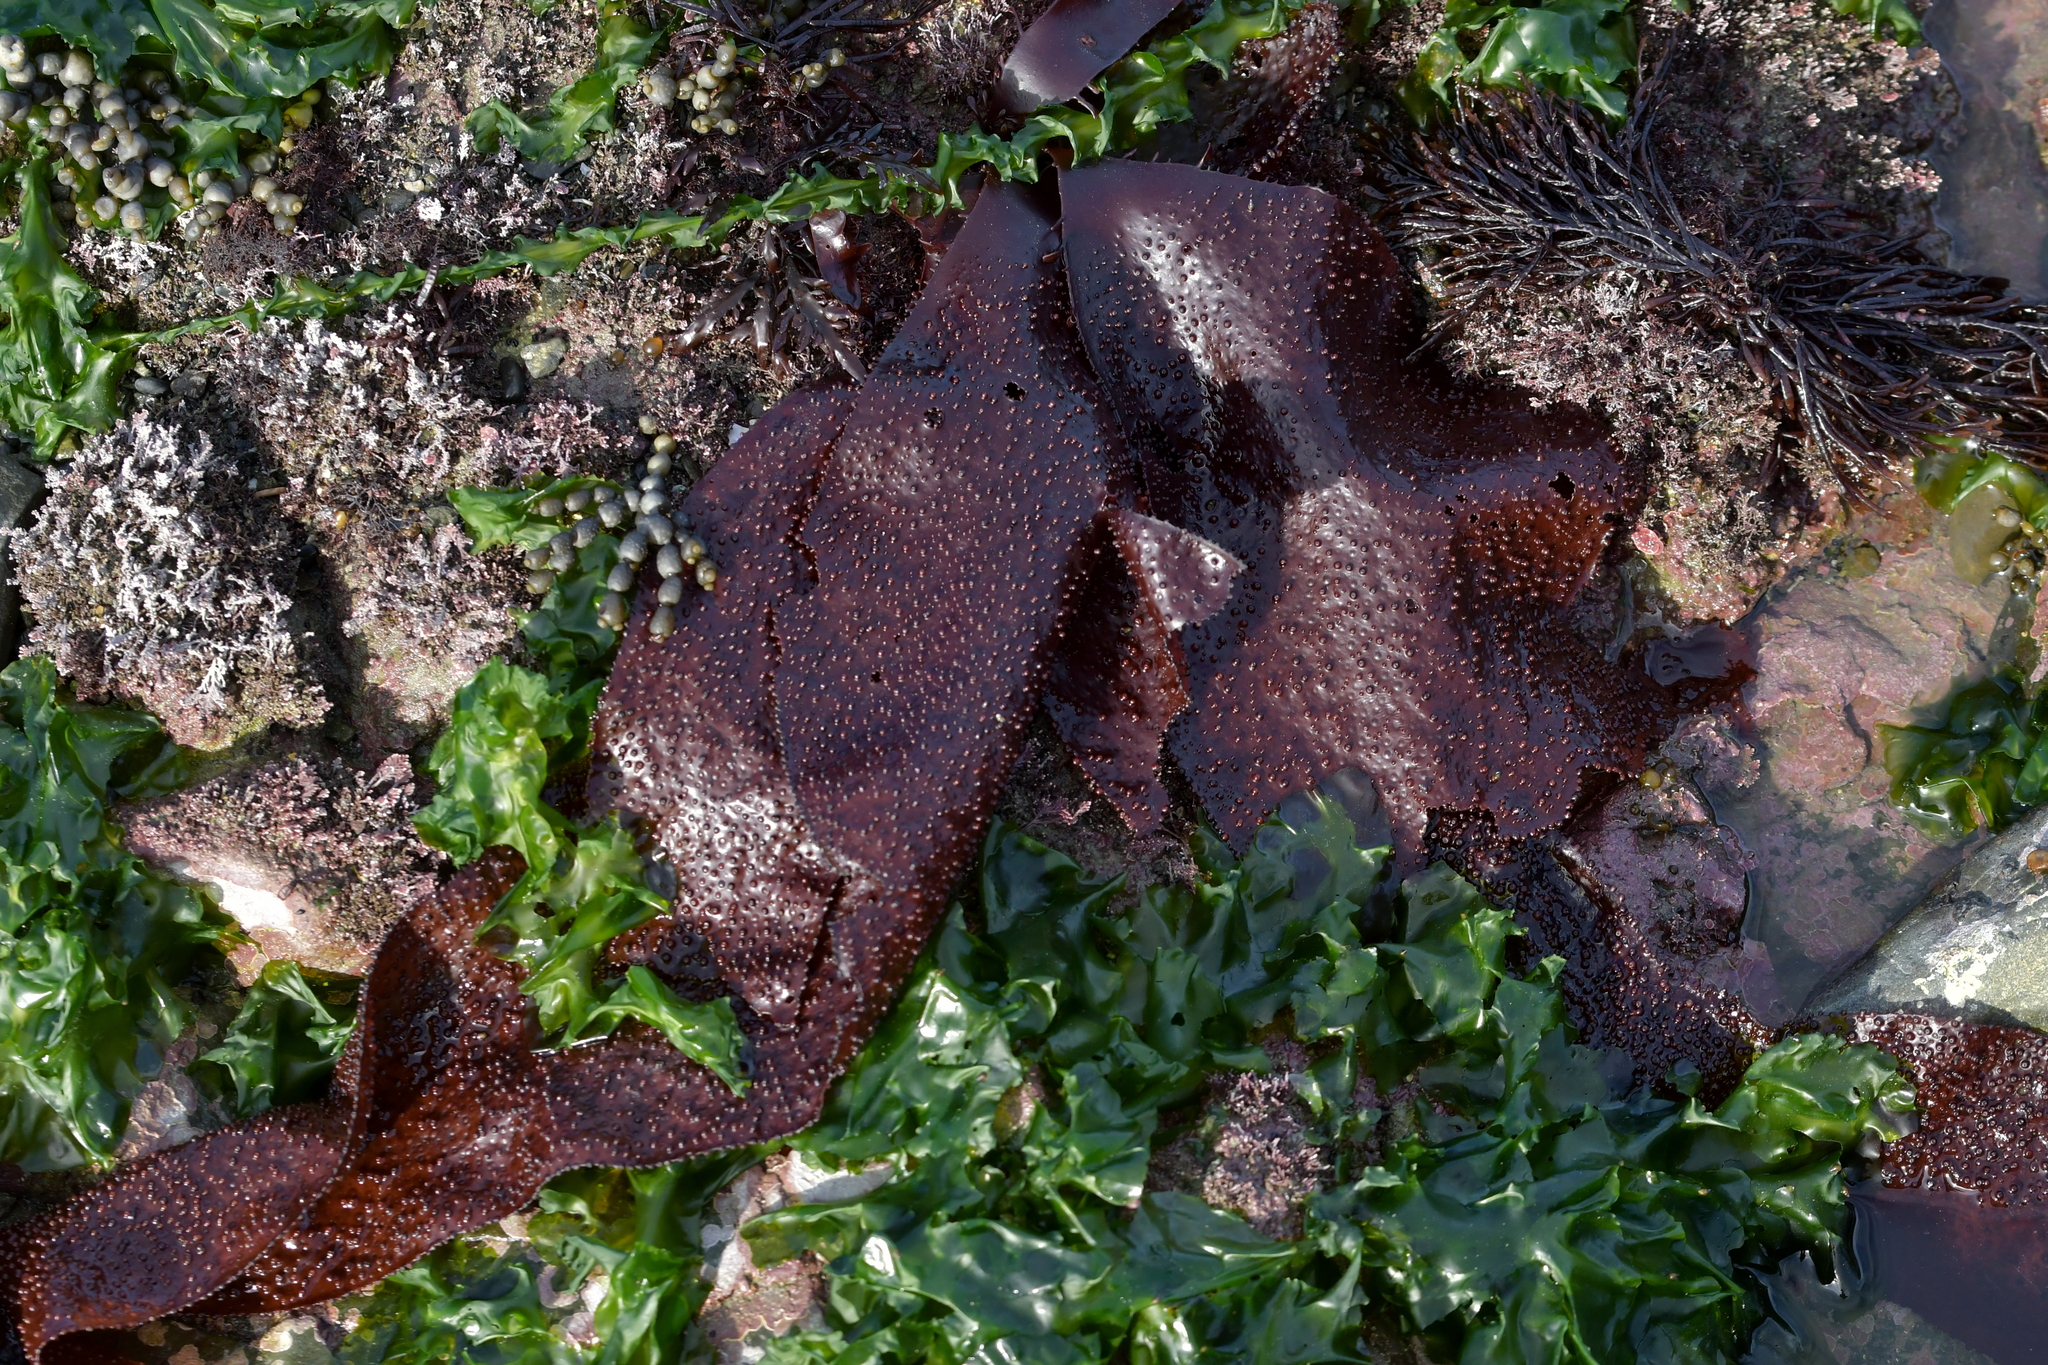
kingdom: Plantae
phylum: Rhodophyta
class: Florideophyceae
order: Gigartinales
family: Gigartinaceae
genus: Sarcothalia
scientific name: Sarcothalia
